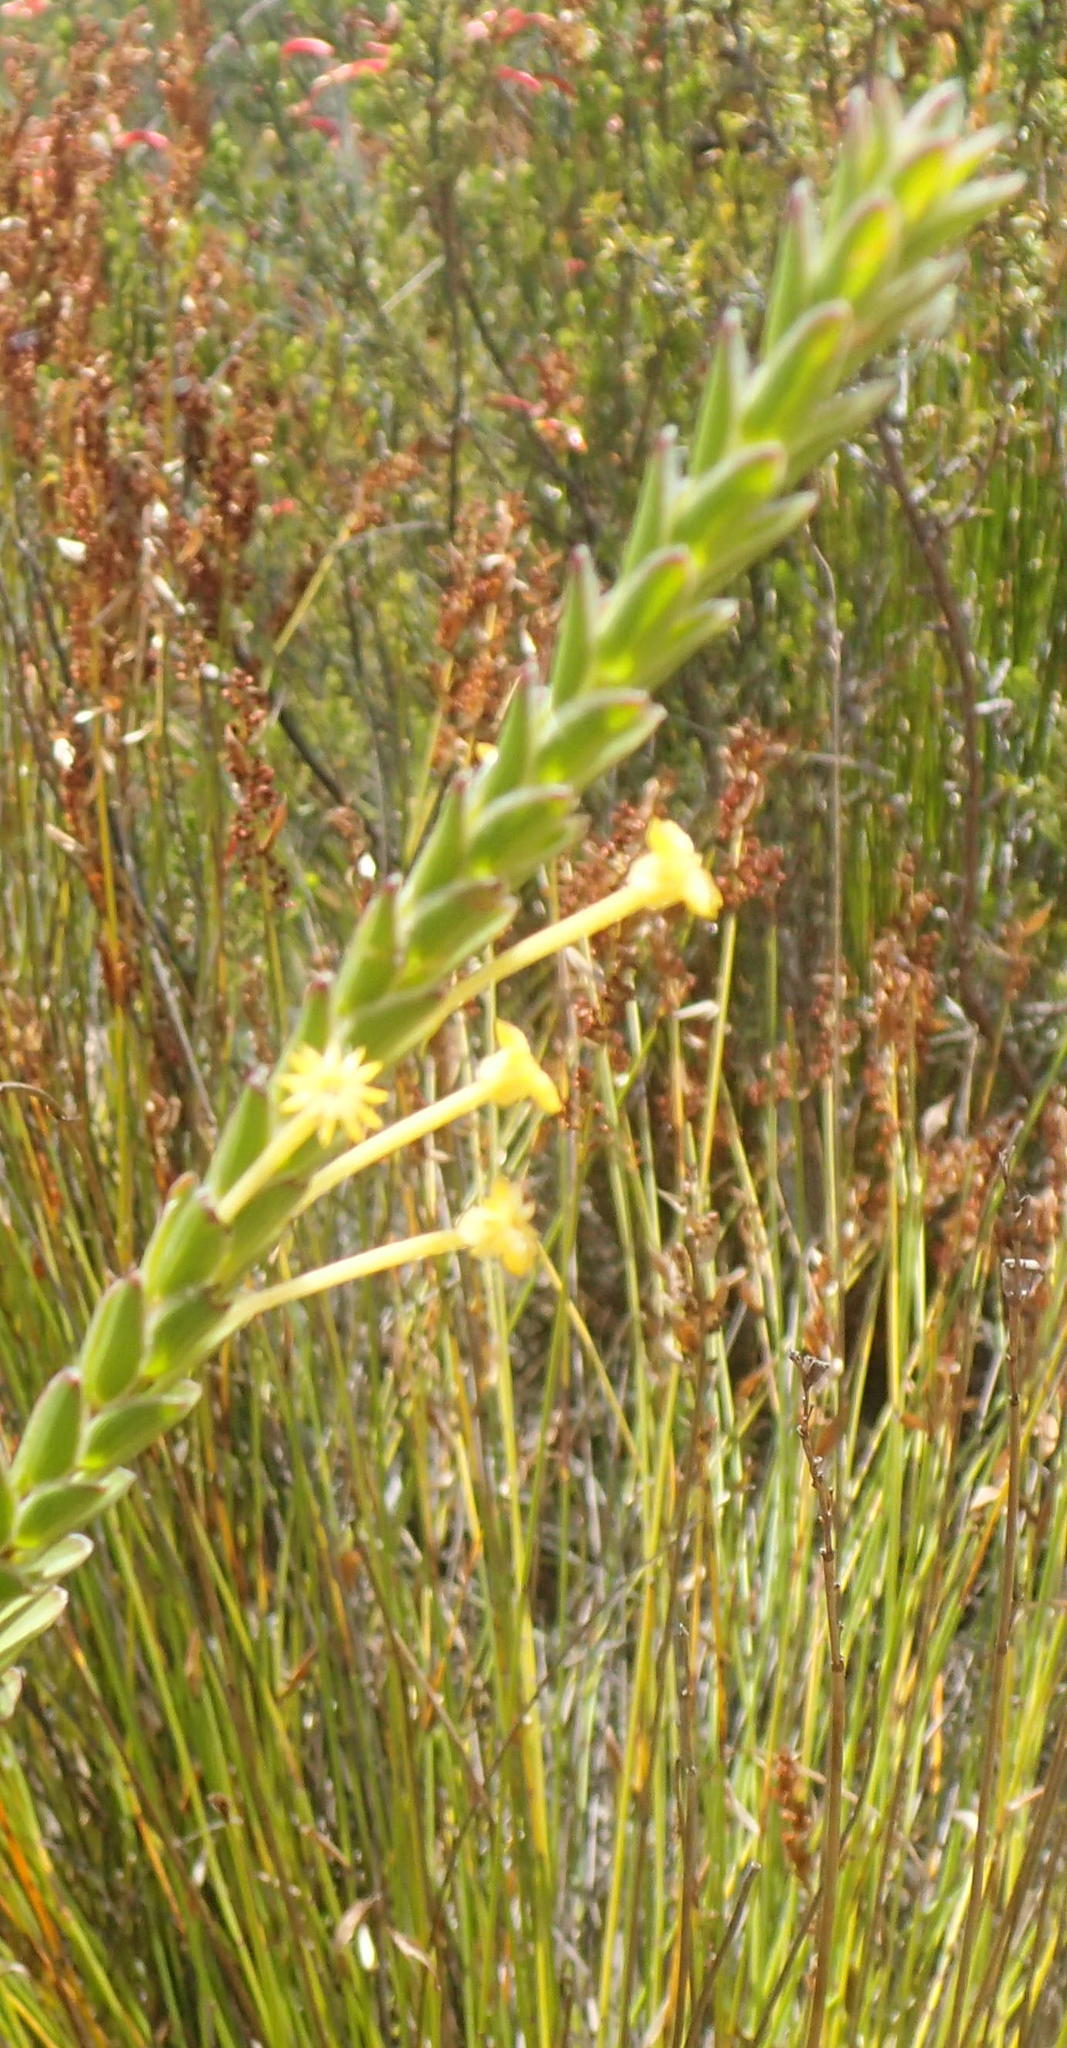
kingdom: Plantae
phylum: Tracheophyta
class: Magnoliopsida
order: Malvales
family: Thymelaeaceae
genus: Struthiola
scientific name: Struthiola argentea
